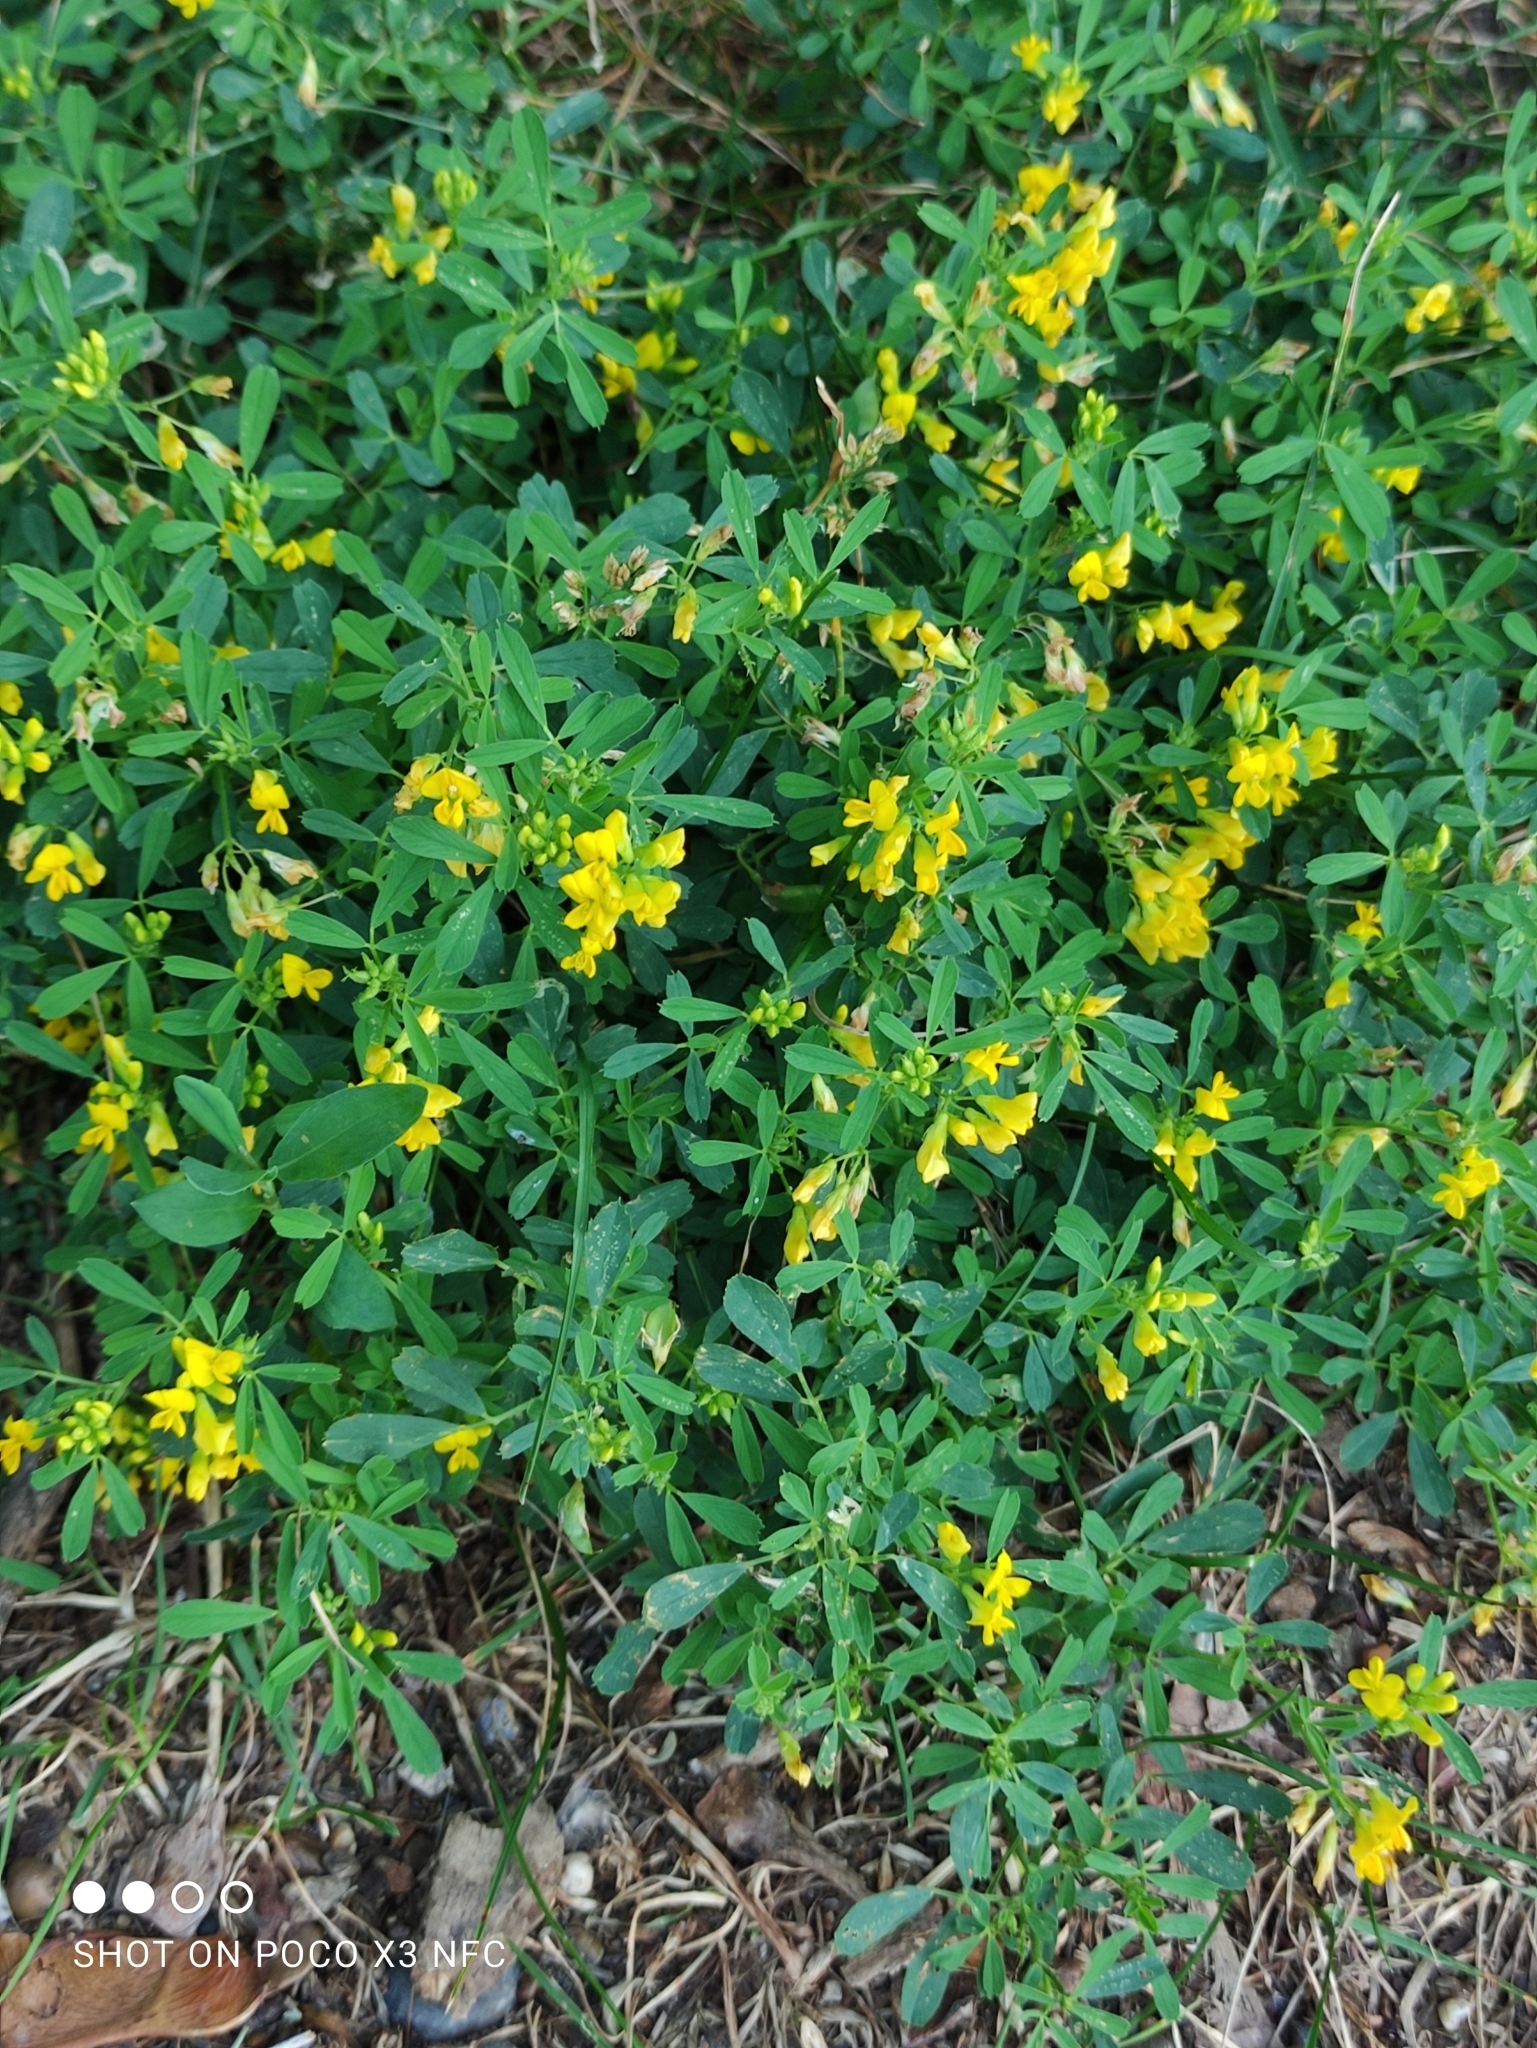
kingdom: Plantae
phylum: Tracheophyta
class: Magnoliopsida
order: Fabales
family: Fabaceae
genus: Medicago
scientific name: Medicago falcata
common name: Sickle medick
